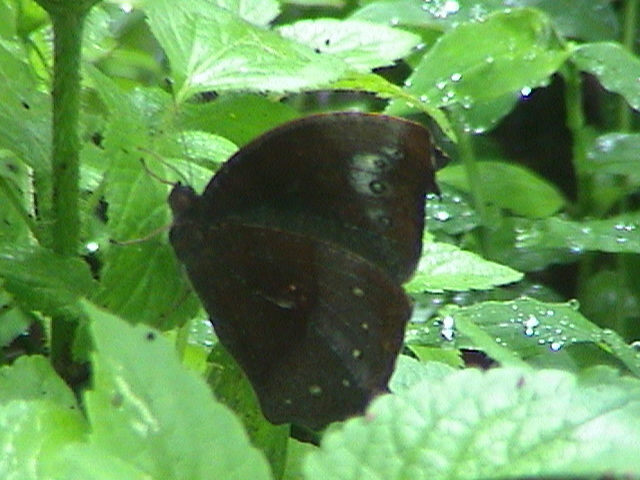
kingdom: Animalia
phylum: Arthropoda
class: Insecta
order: Lepidoptera
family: Nymphalidae
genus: Melanitis
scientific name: Melanitis phedima
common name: Dark evening brown
